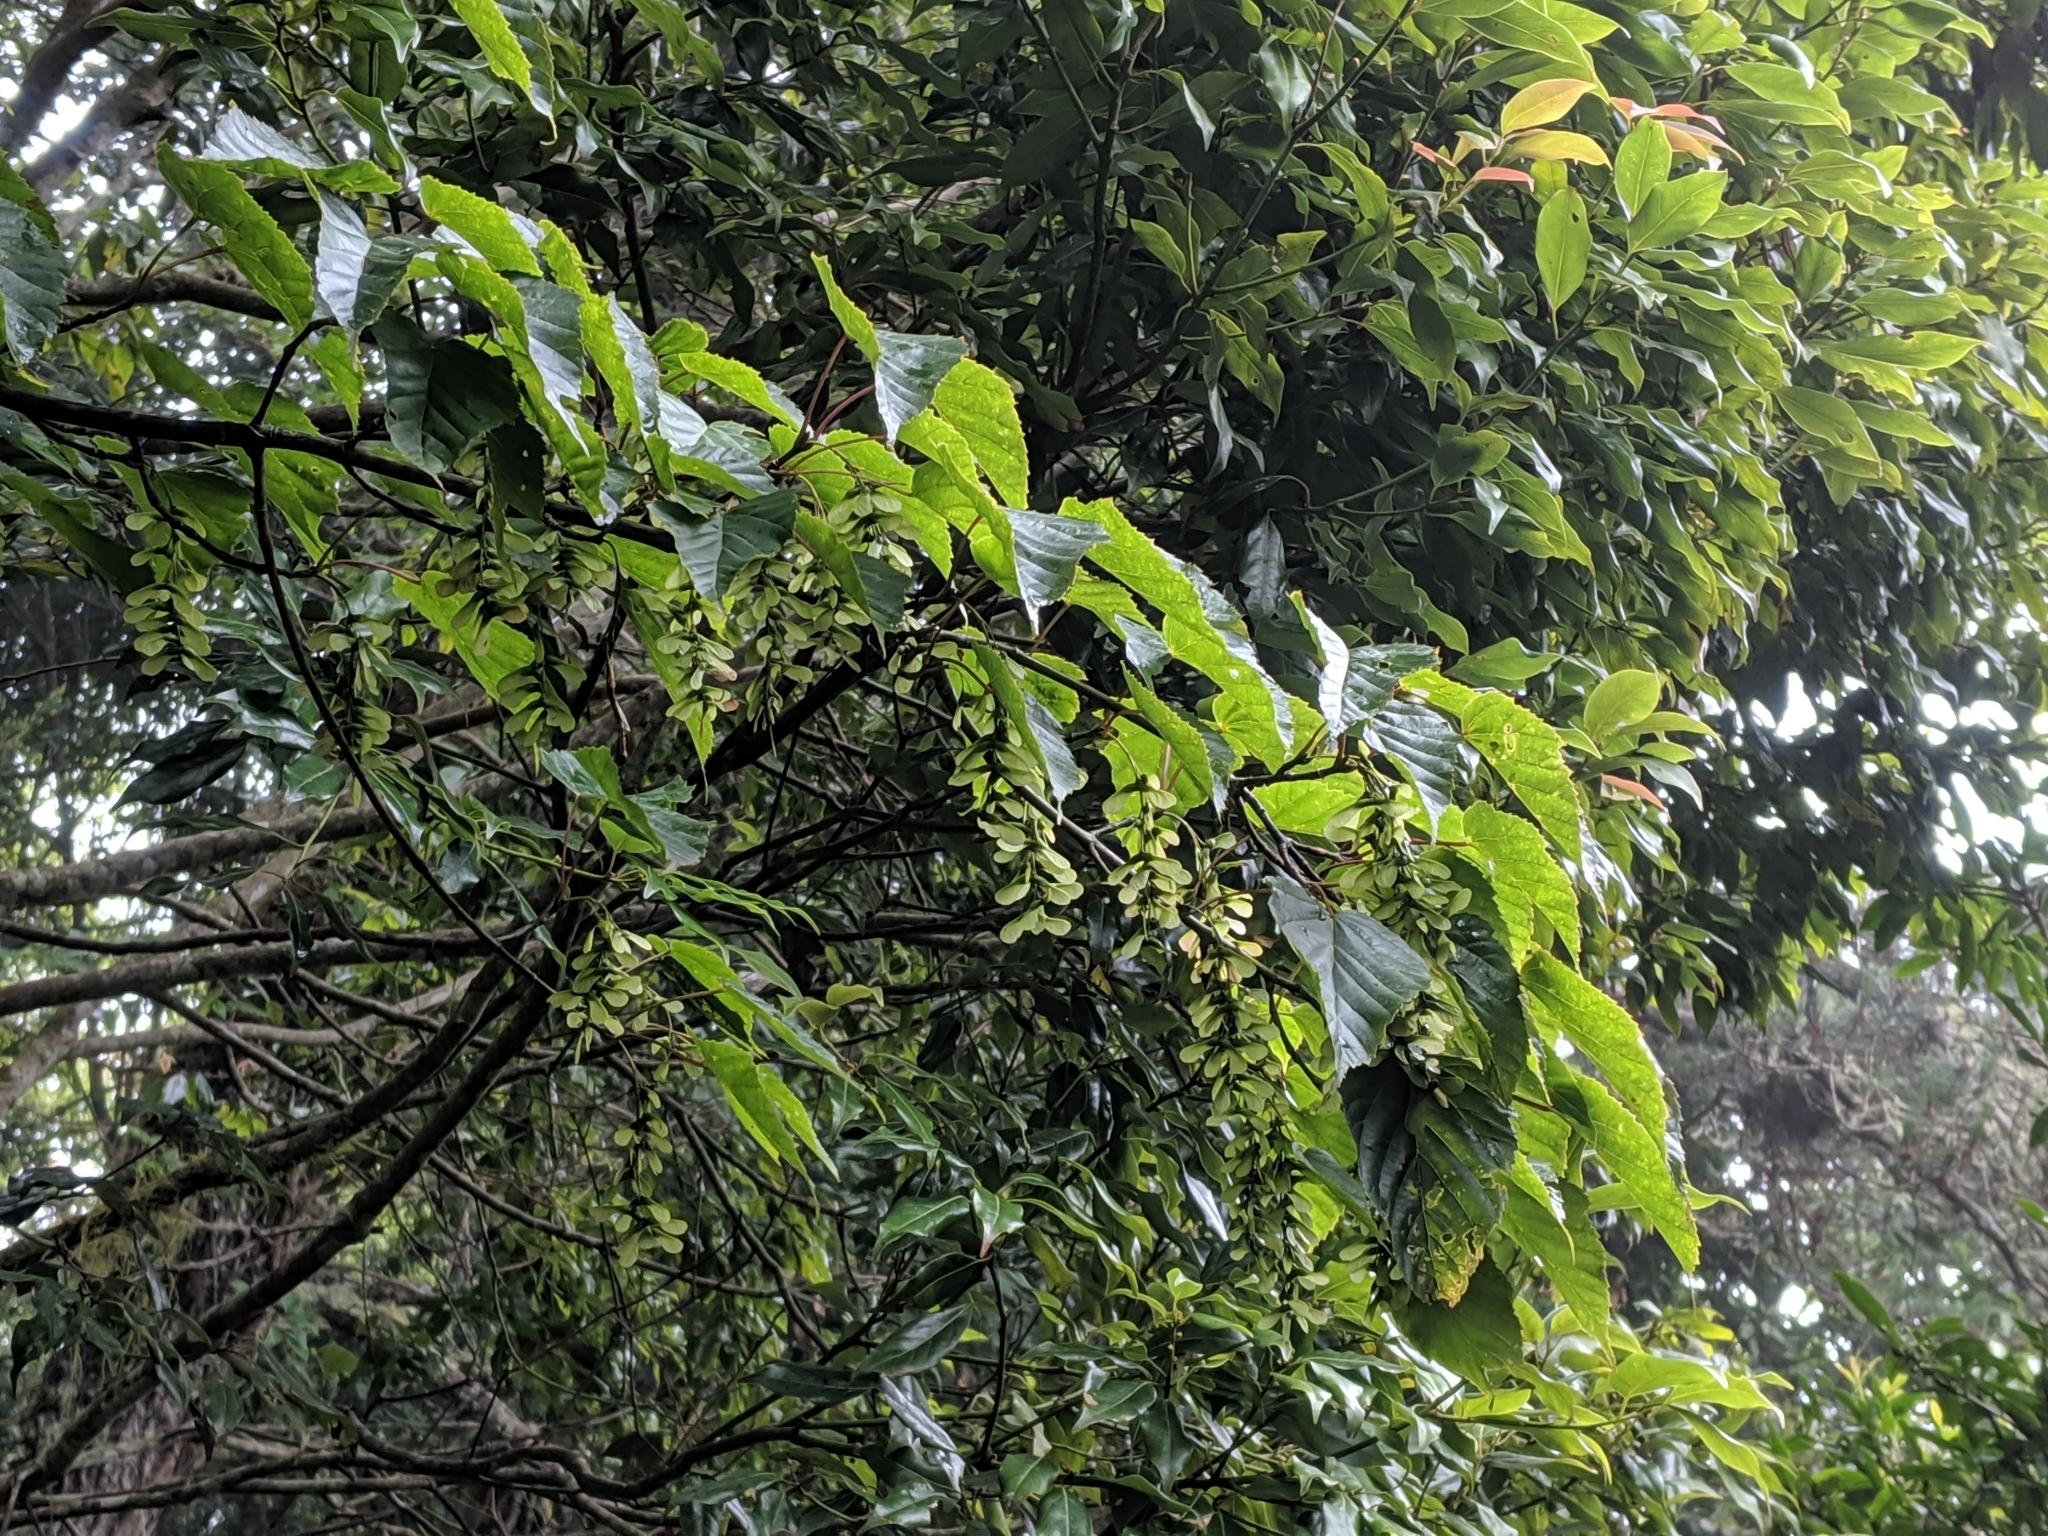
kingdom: Plantae
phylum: Tracheophyta
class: Magnoliopsida
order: Sapindales
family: Sapindaceae
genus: Acer
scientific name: Acer caudatifolium
